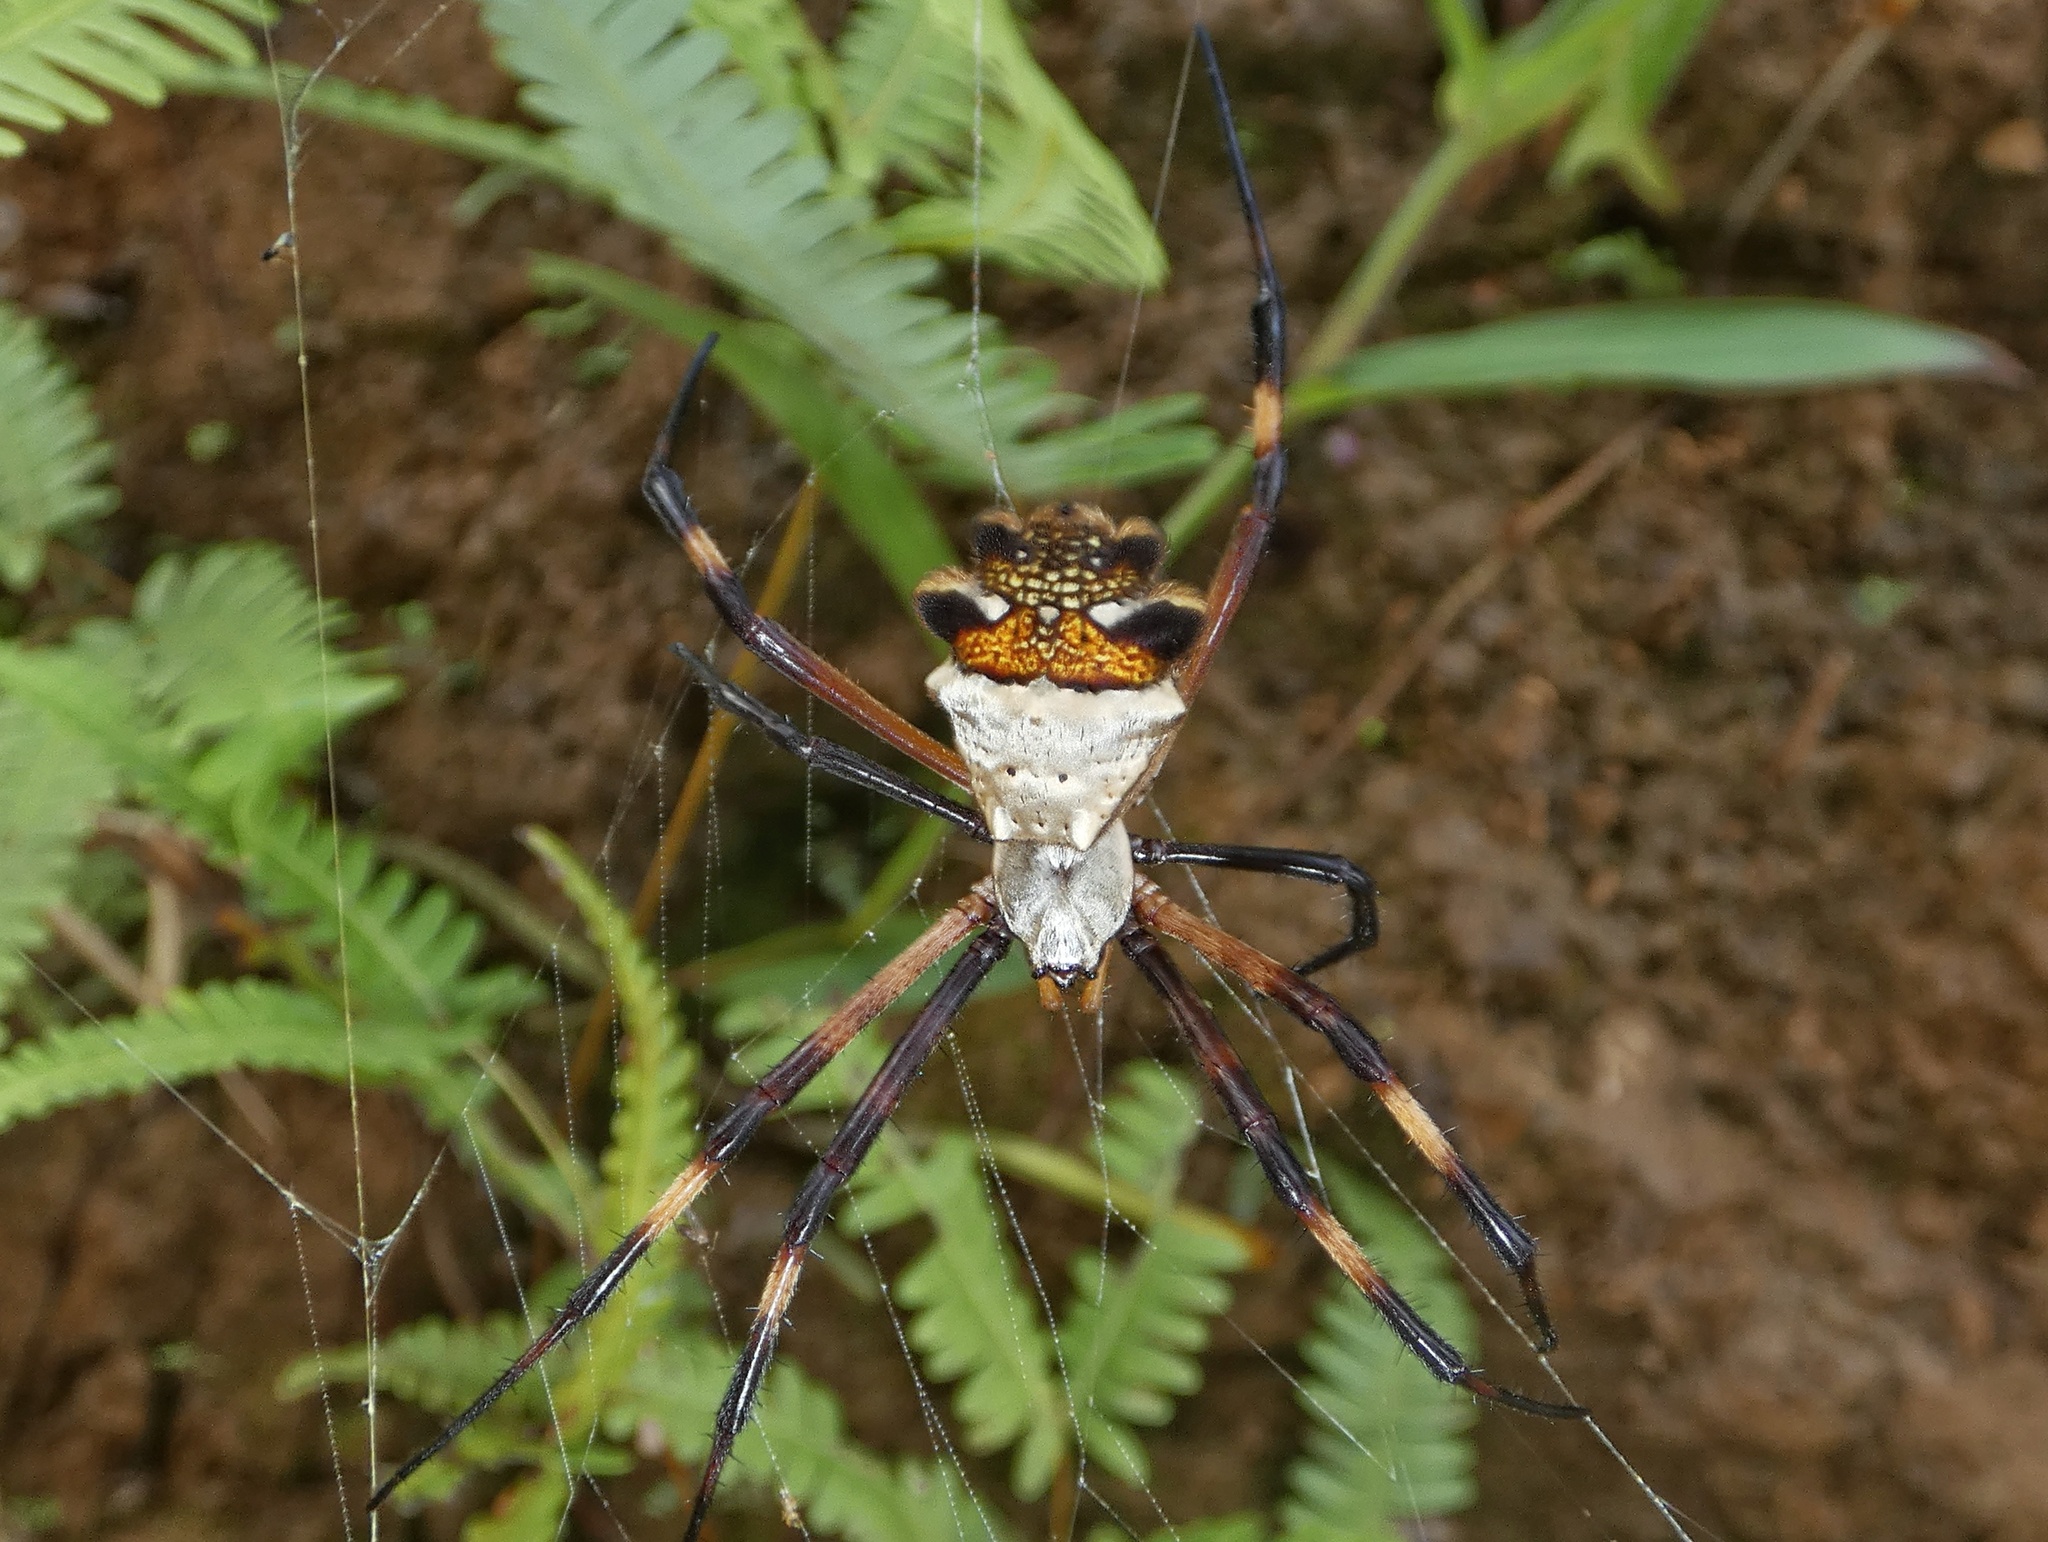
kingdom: Animalia
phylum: Arthropoda
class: Arachnida
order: Araneae
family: Araneidae
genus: Argiope
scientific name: Argiope argentata
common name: Orb weavers
